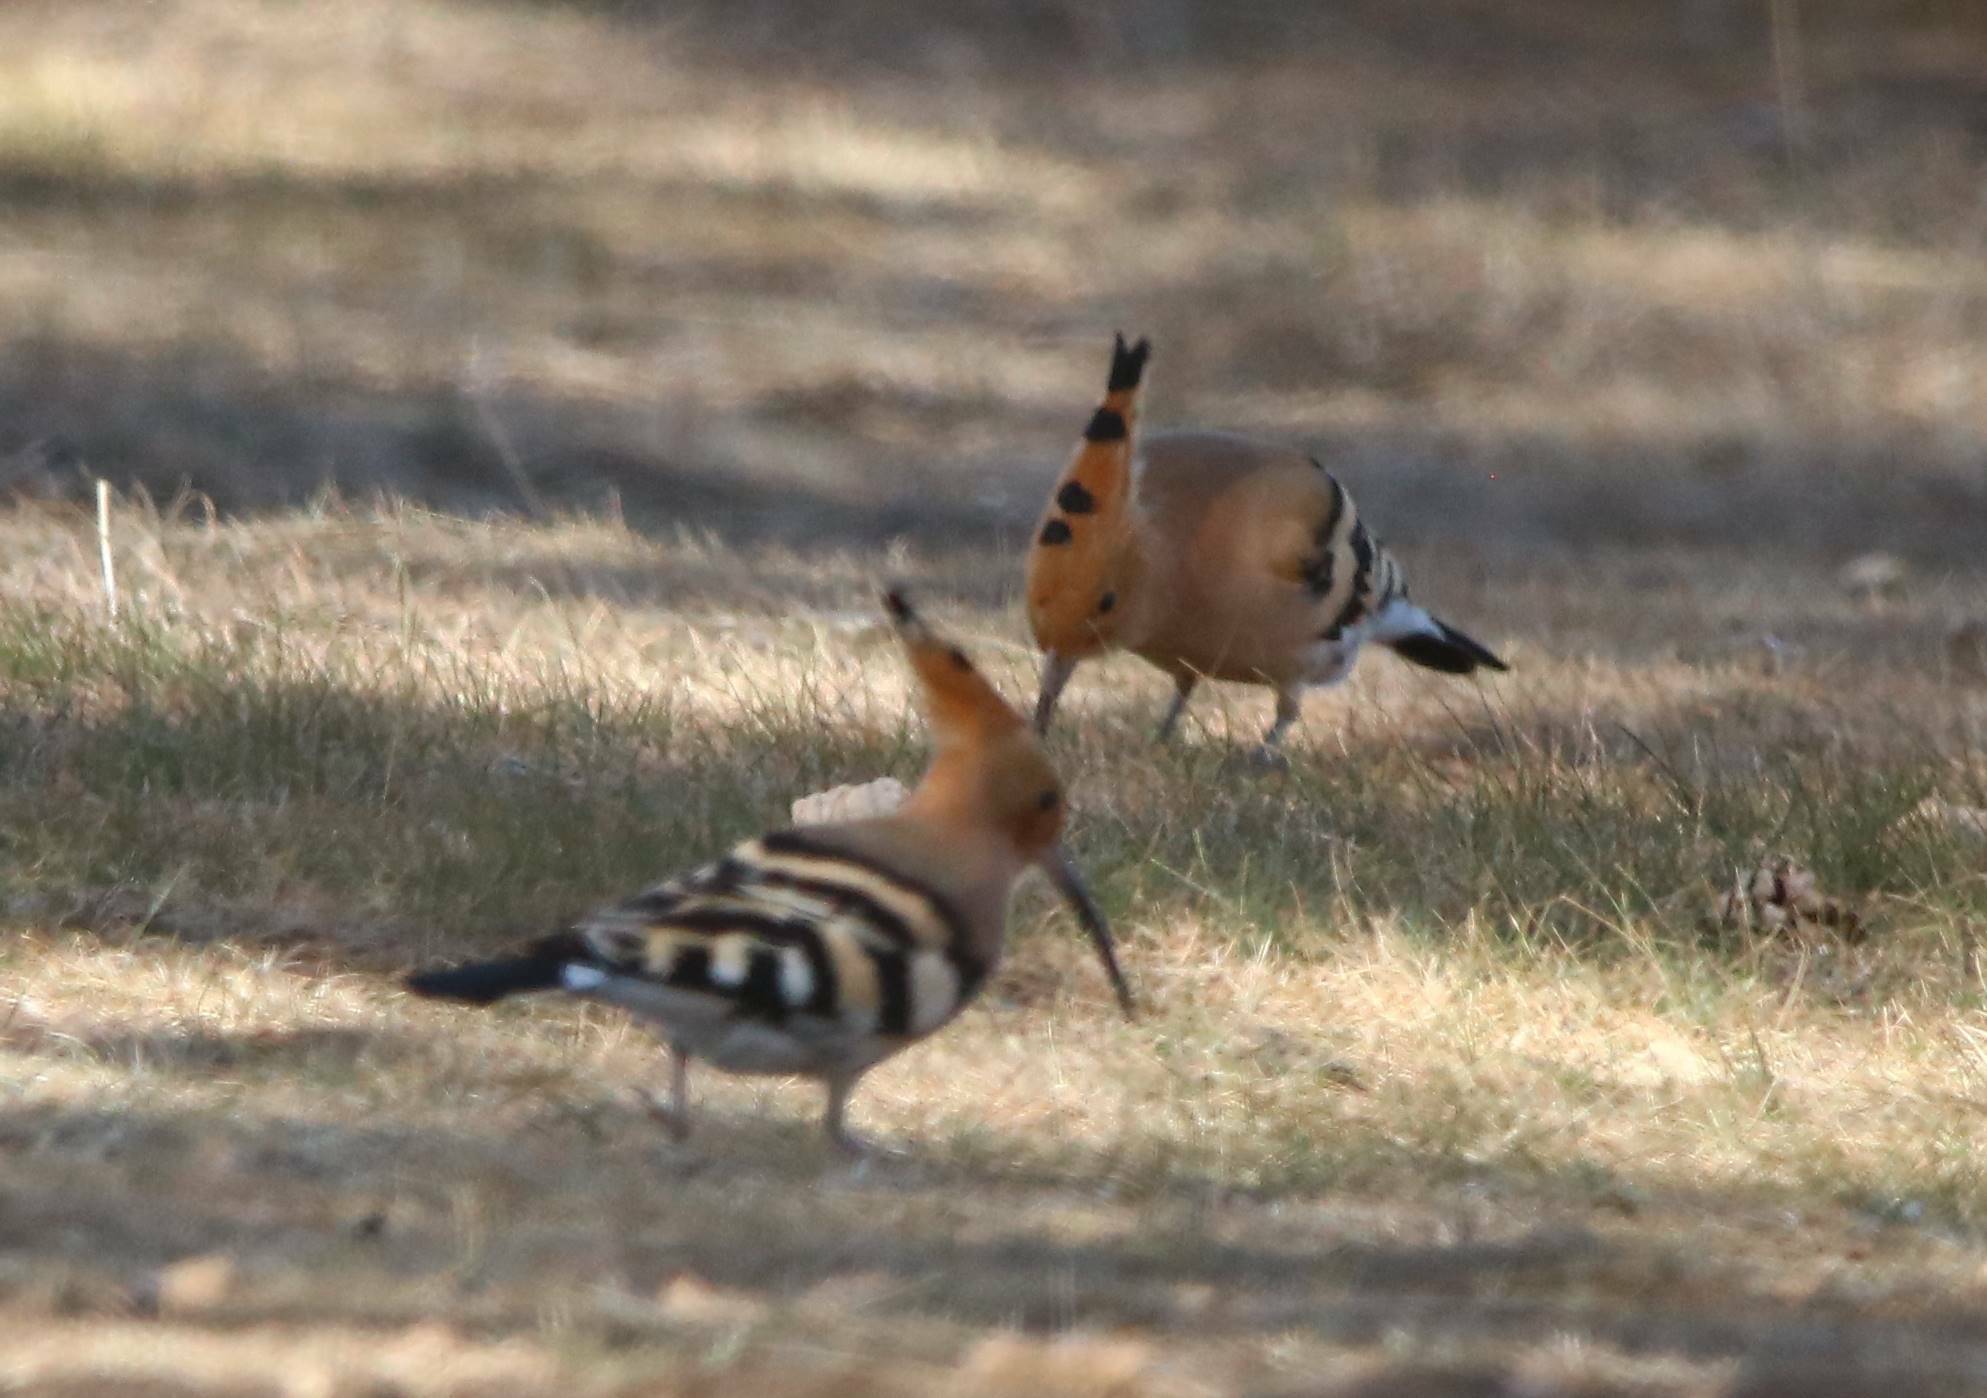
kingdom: Animalia
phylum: Chordata
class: Aves
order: Bucerotiformes
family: Upupidae
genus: Upupa
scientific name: Upupa epops
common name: Eurasian hoopoe
